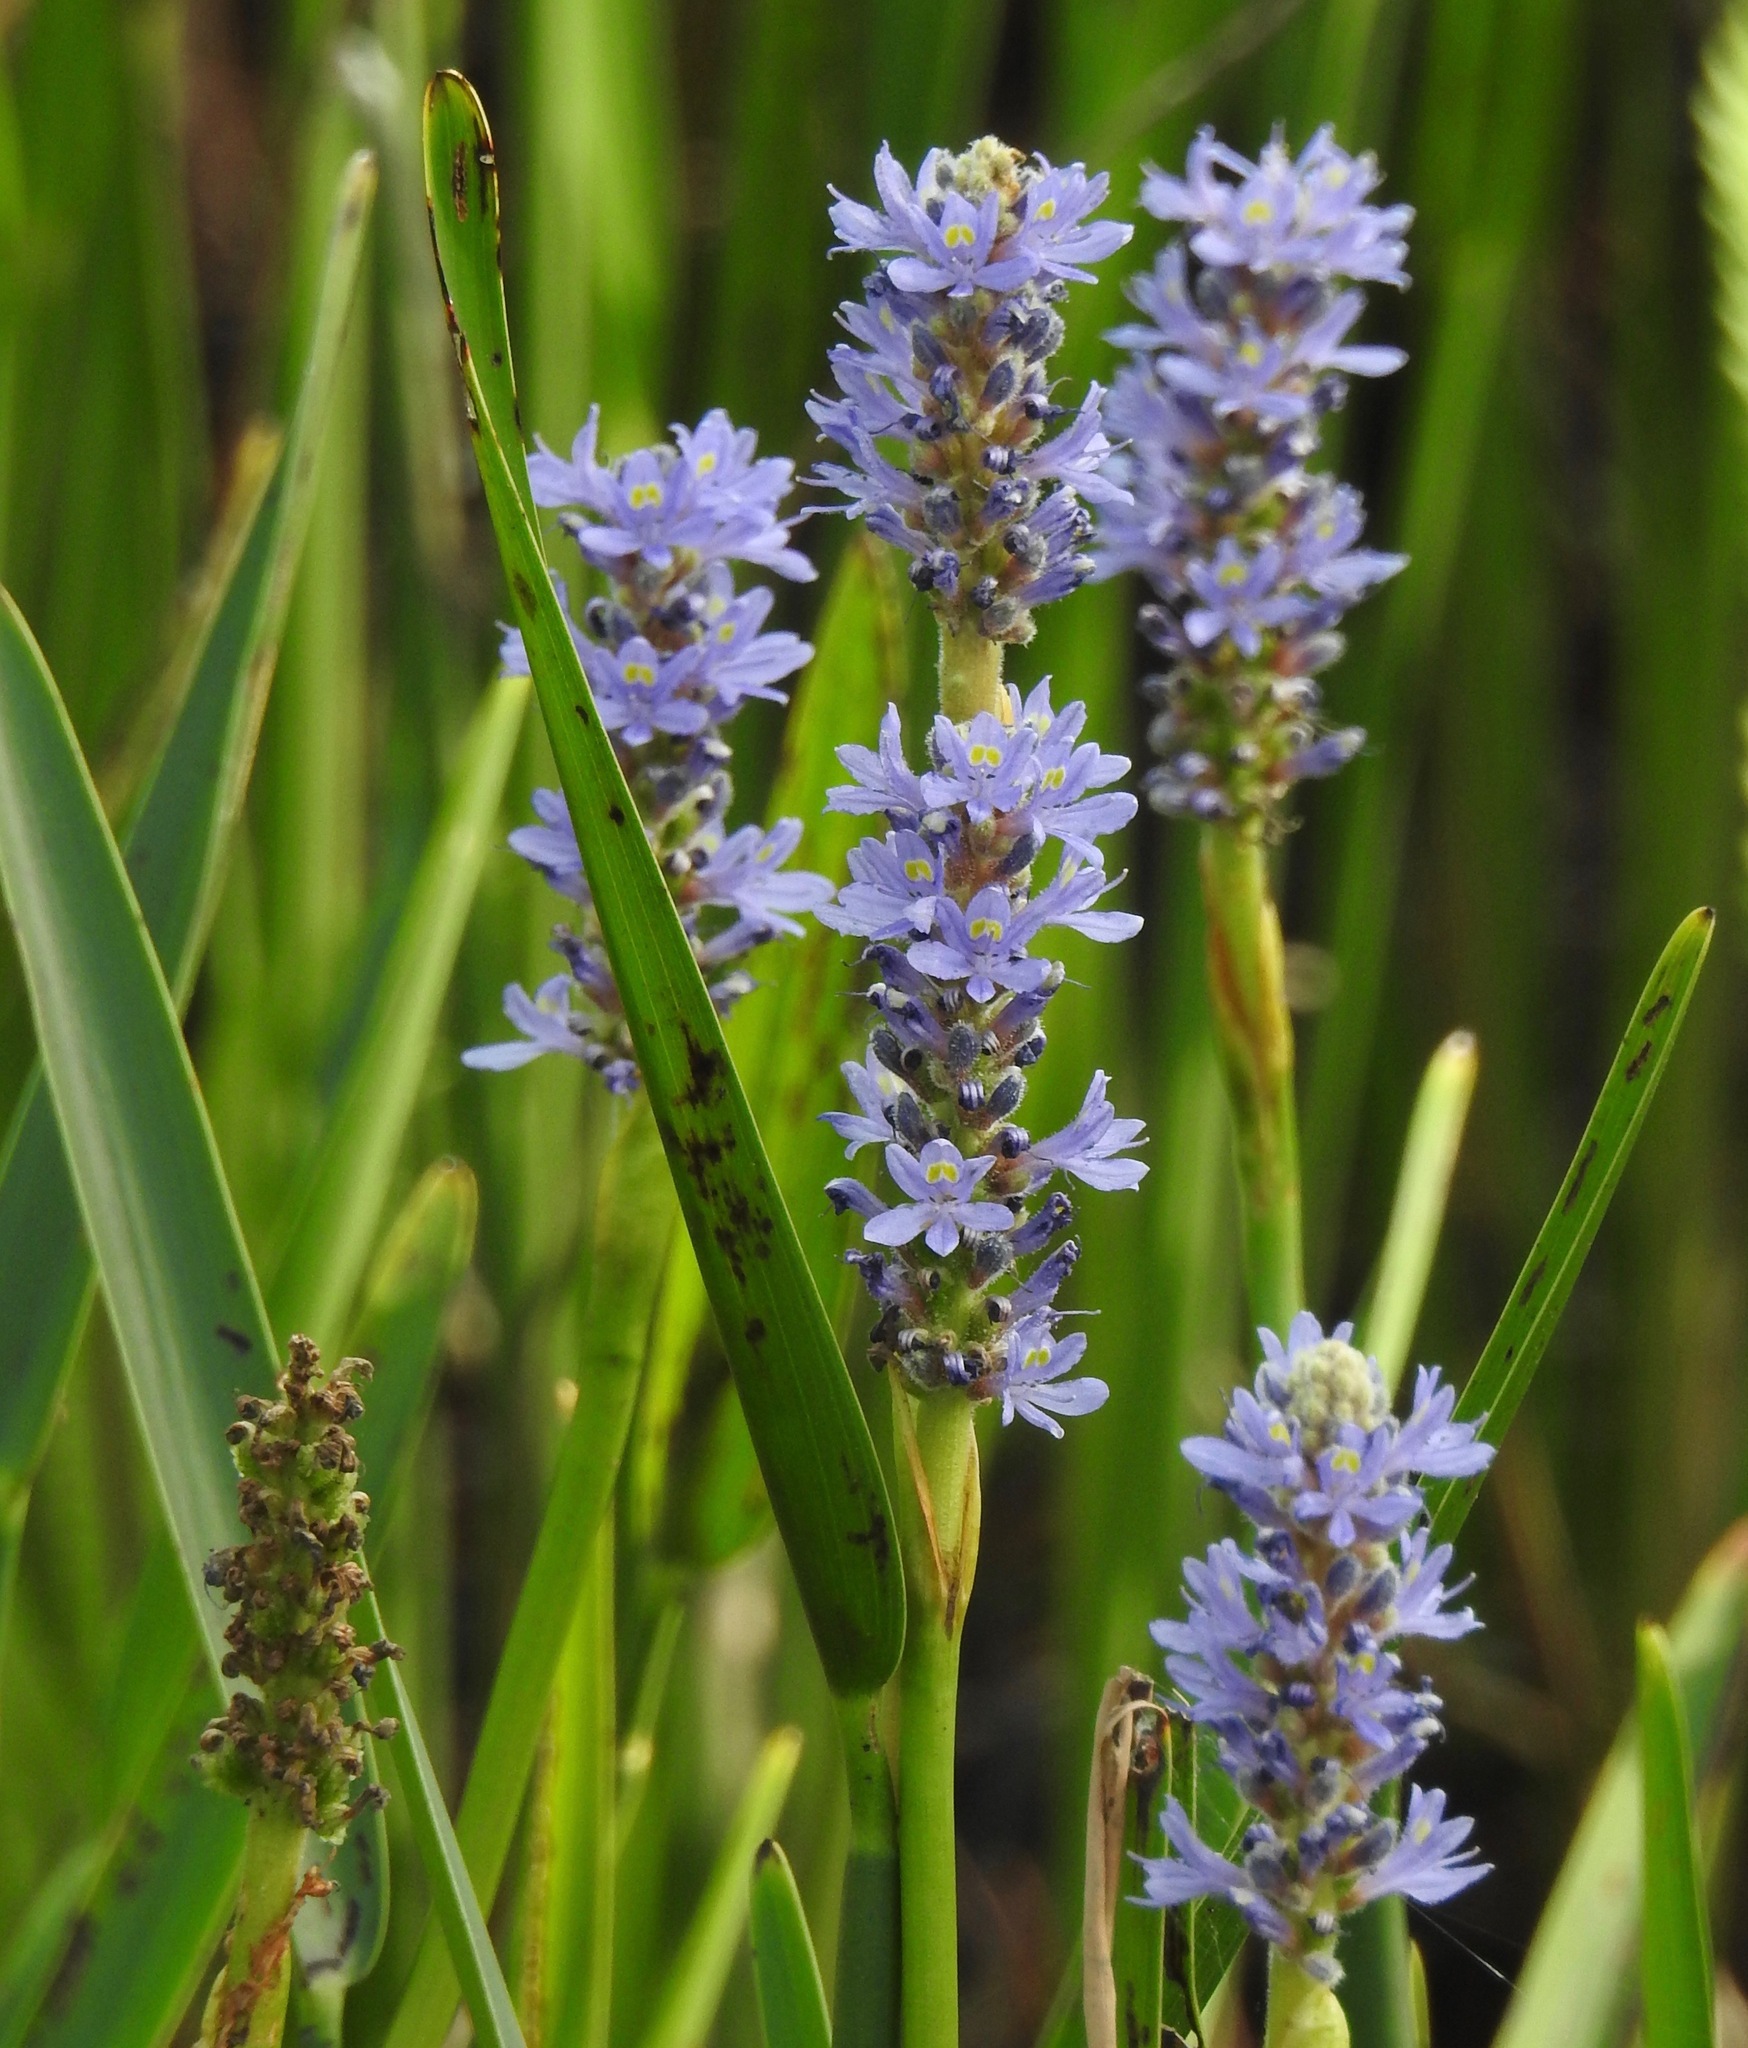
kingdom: Plantae
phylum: Tracheophyta
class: Liliopsida
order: Commelinales
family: Pontederiaceae
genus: Pontederia
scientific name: Pontederia cordata
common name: Pickerelweed
